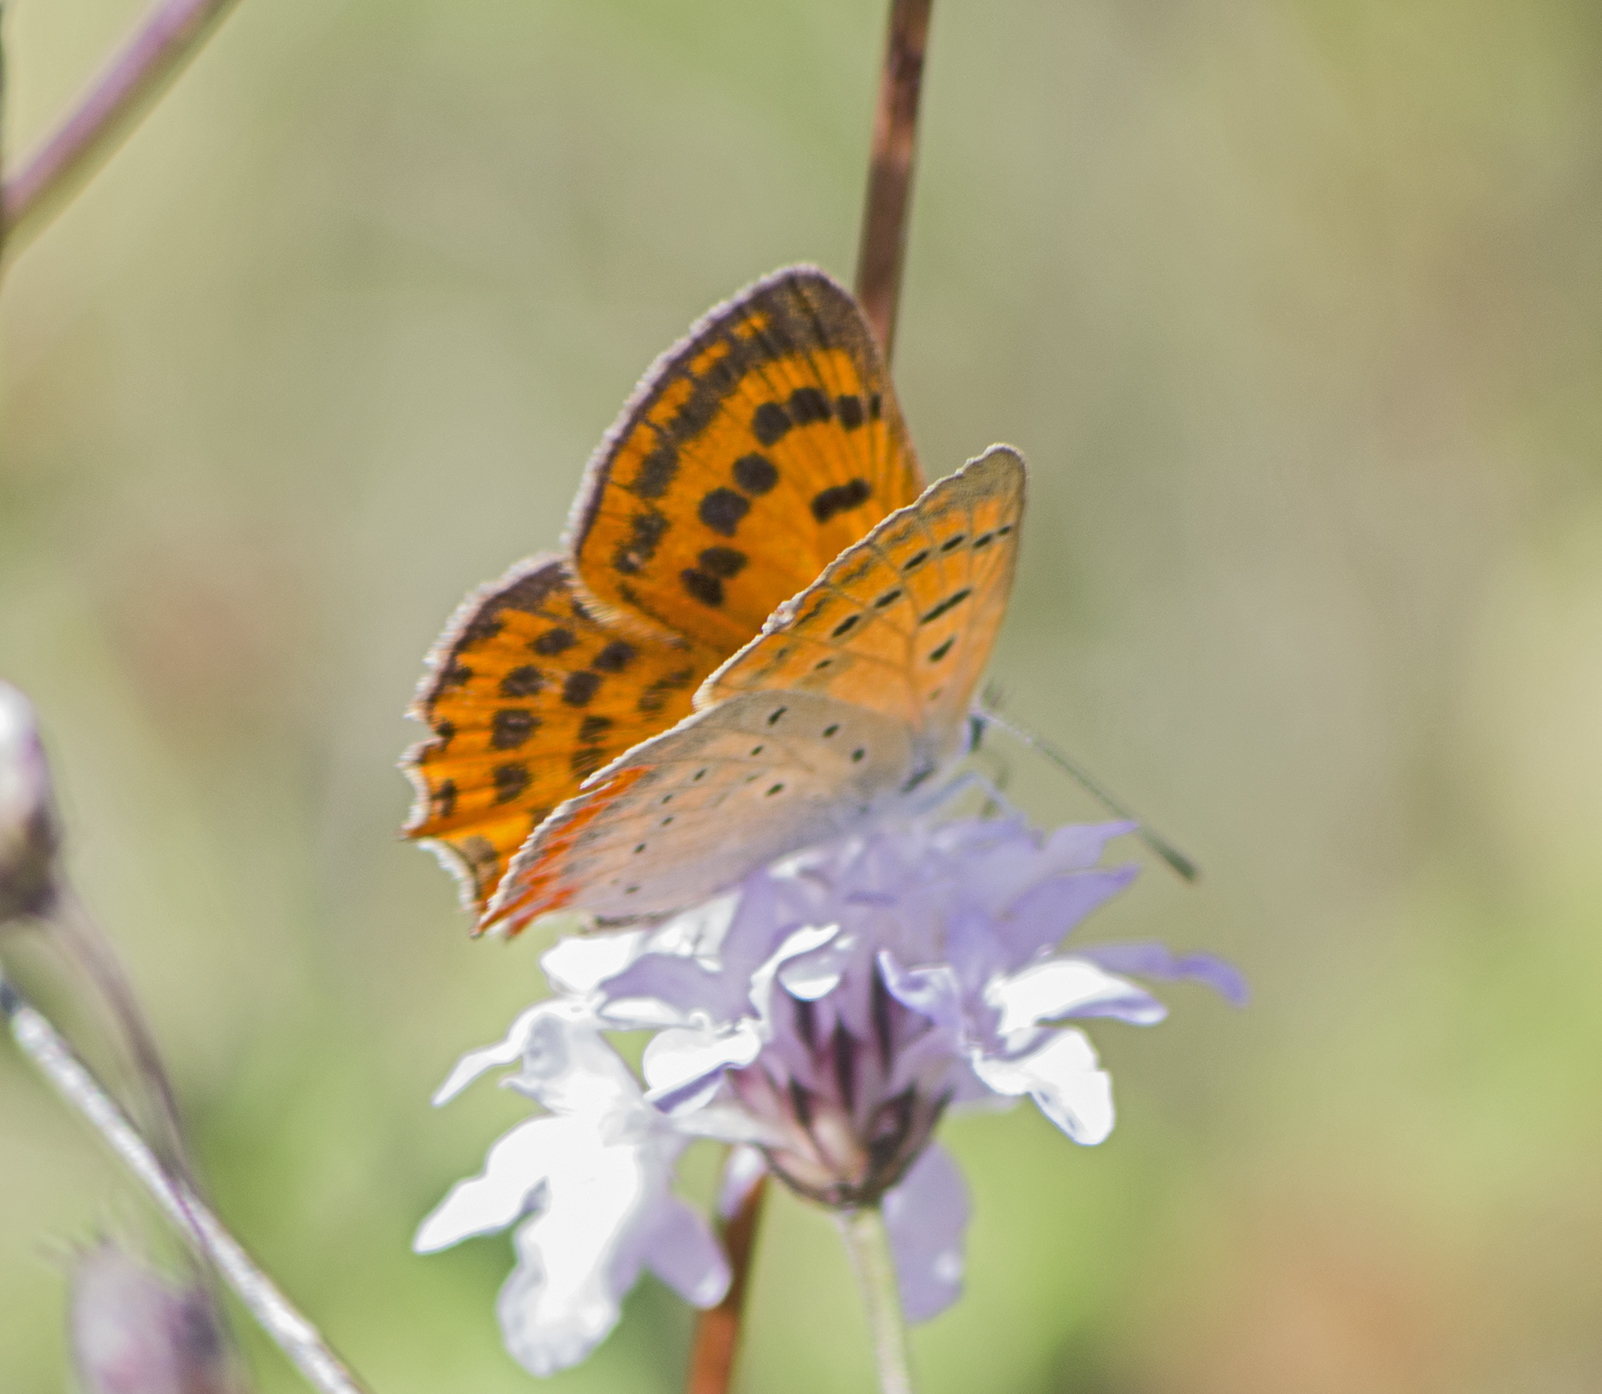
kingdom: Animalia
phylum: Arthropoda
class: Insecta
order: Lepidoptera
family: Lycaenidae
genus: Polyommatus
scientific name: Polyommatus ottomanus
